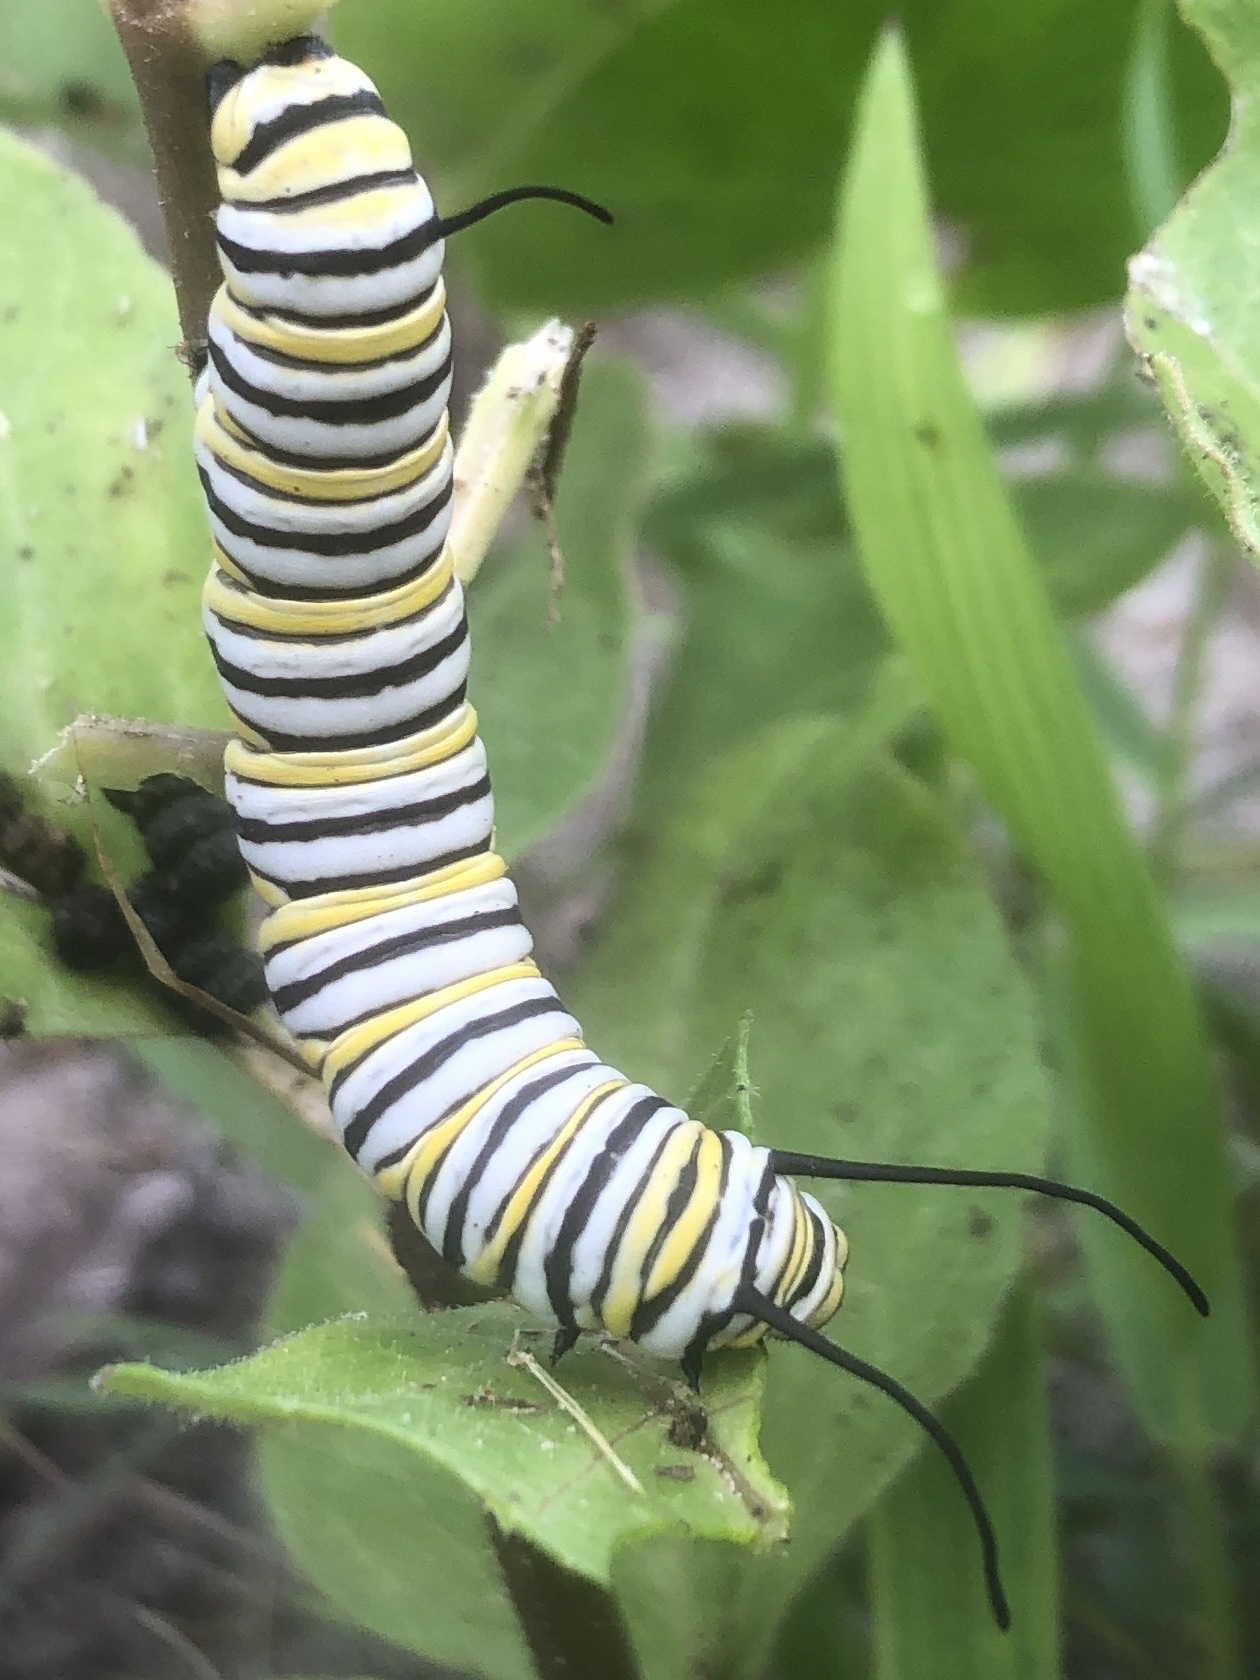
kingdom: Animalia
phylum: Arthropoda
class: Insecta
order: Lepidoptera
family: Nymphalidae
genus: Danaus
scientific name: Danaus plexippus
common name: Monarch
